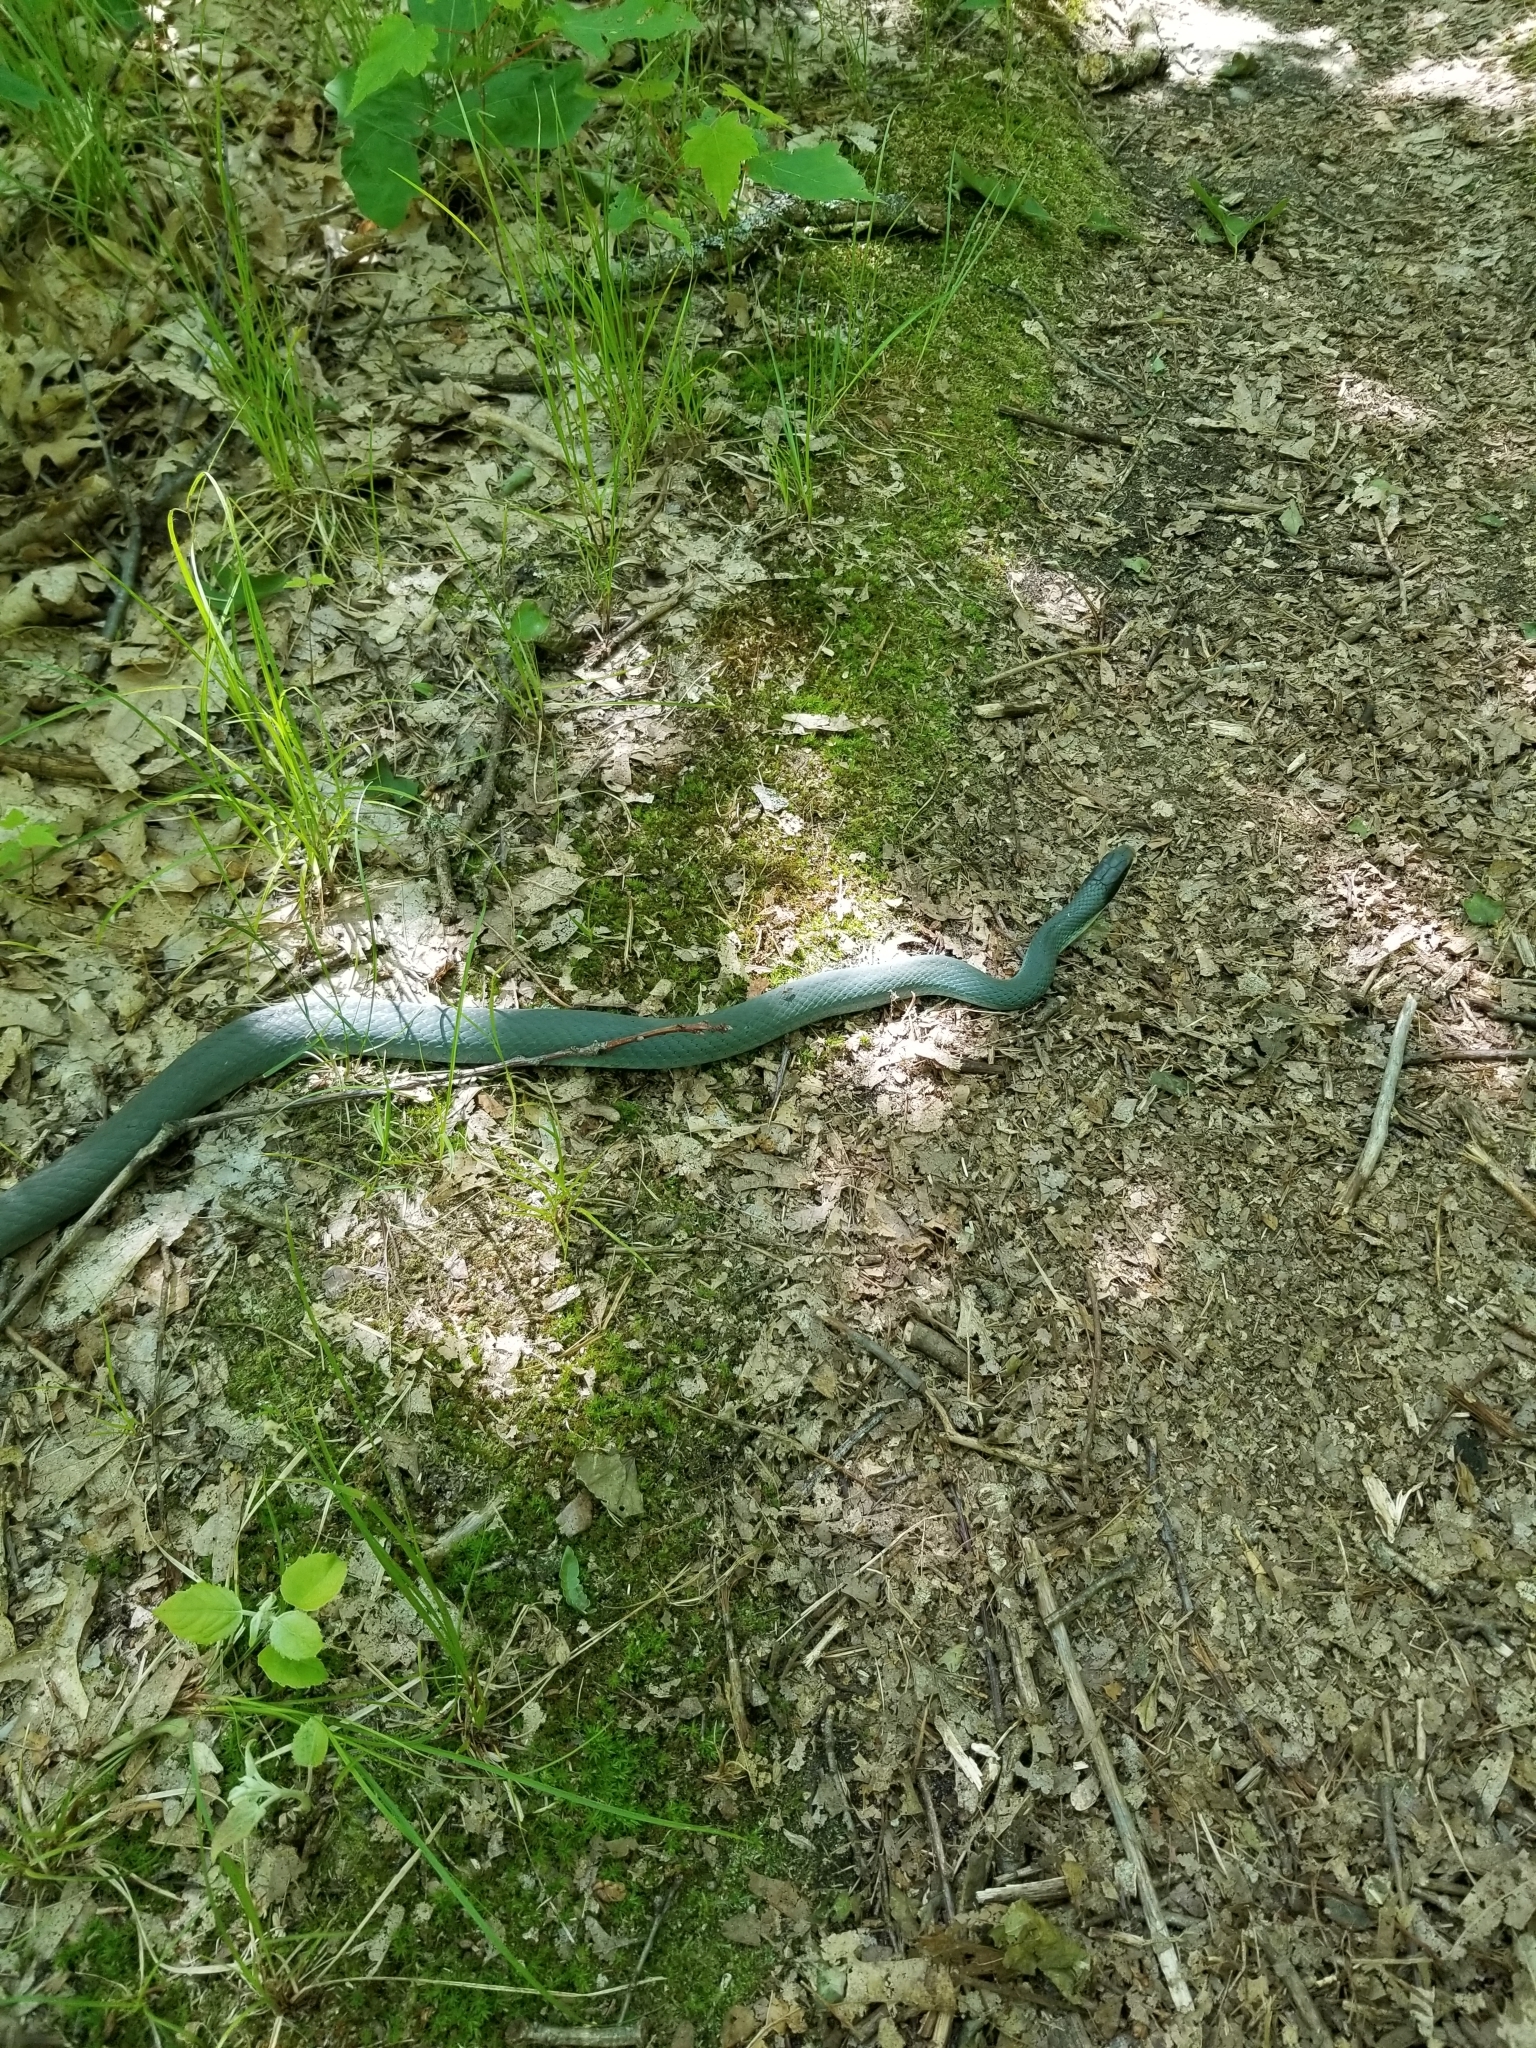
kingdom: Animalia
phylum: Chordata
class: Squamata
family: Colubridae
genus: Coluber
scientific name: Coluber constrictor
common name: Eastern racer
